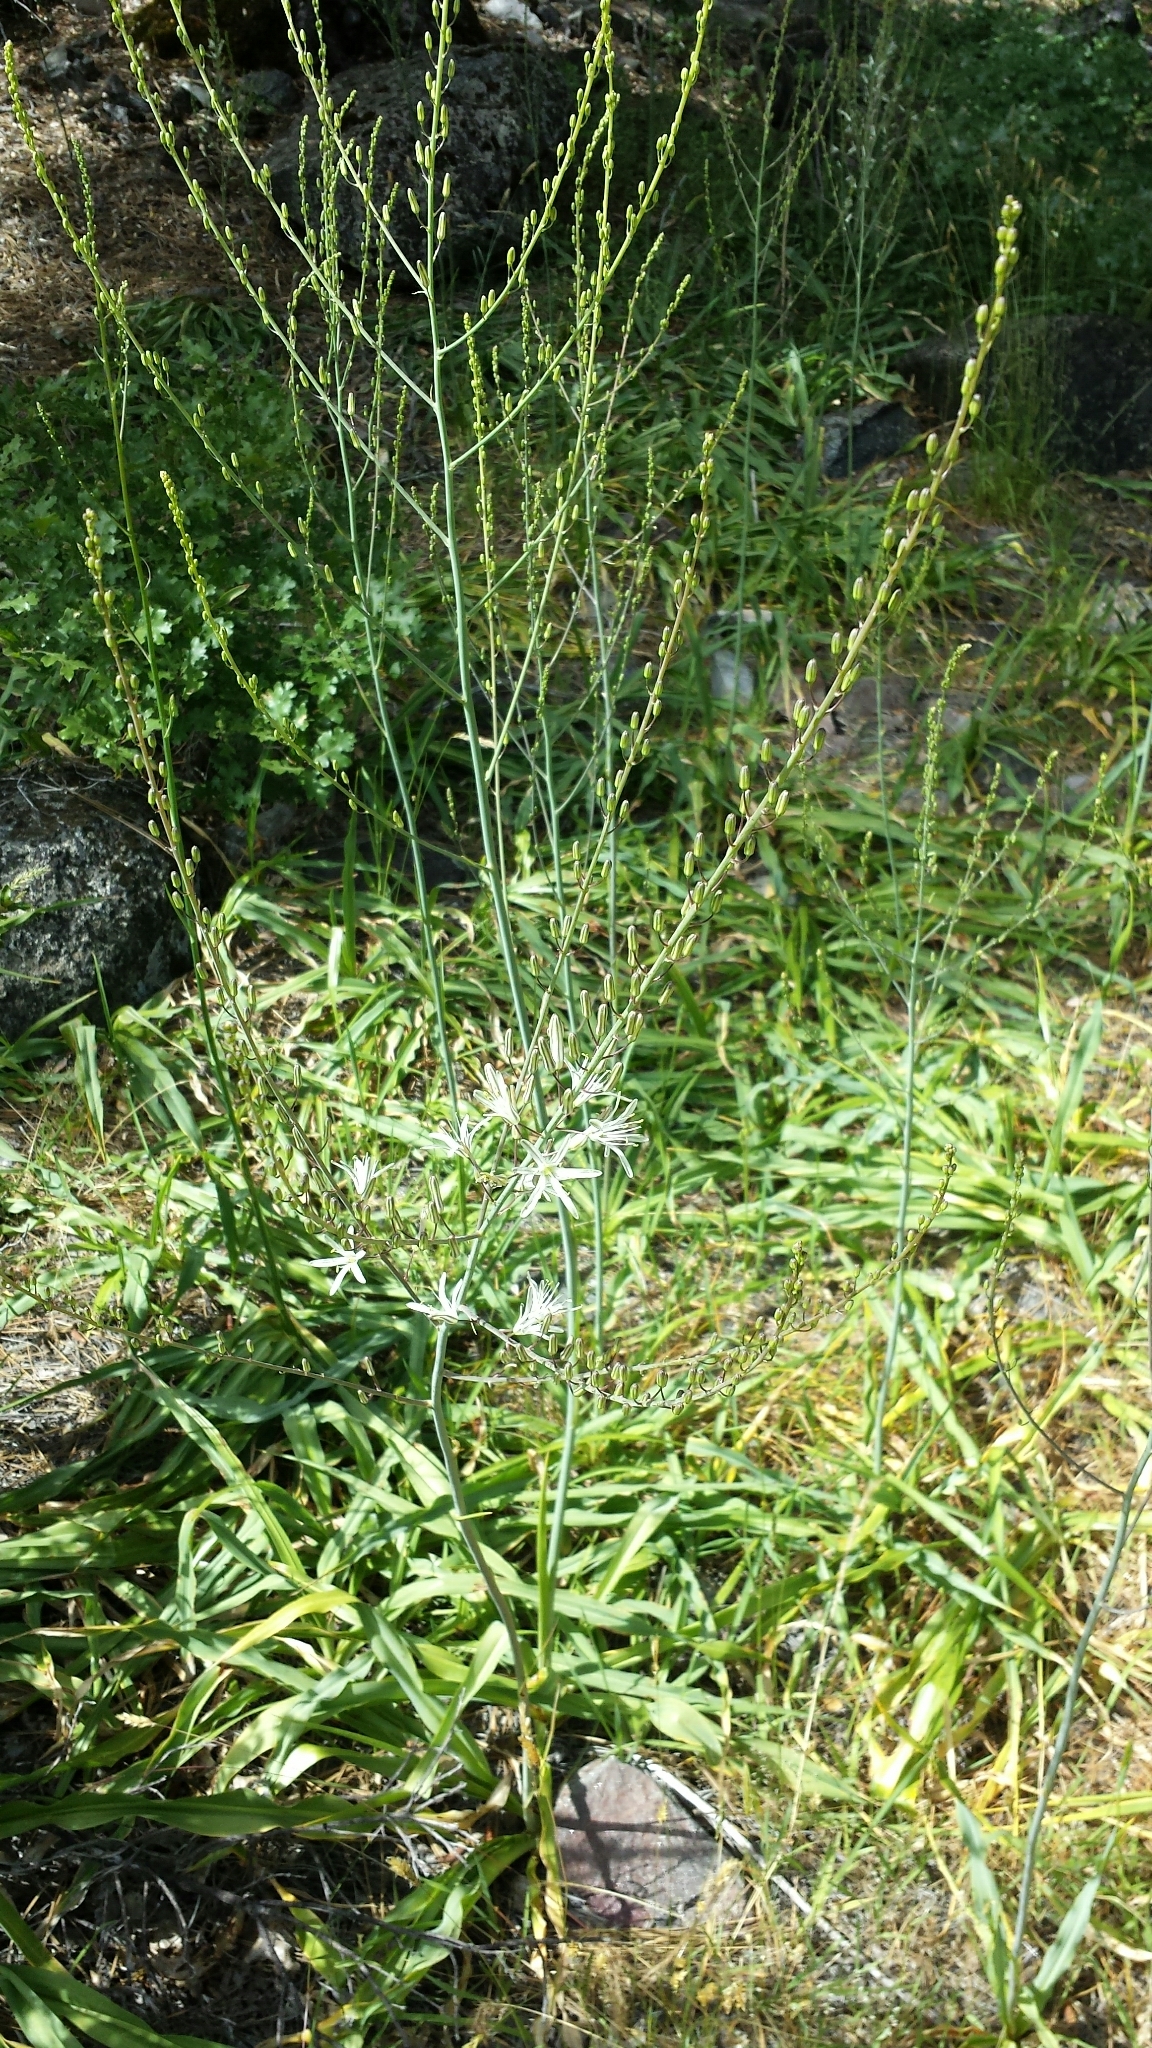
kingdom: Plantae
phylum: Tracheophyta
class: Liliopsida
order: Asparagales
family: Asparagaceae
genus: Chlorogalum
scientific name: Chlorogalum pomeridianum
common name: Amole
